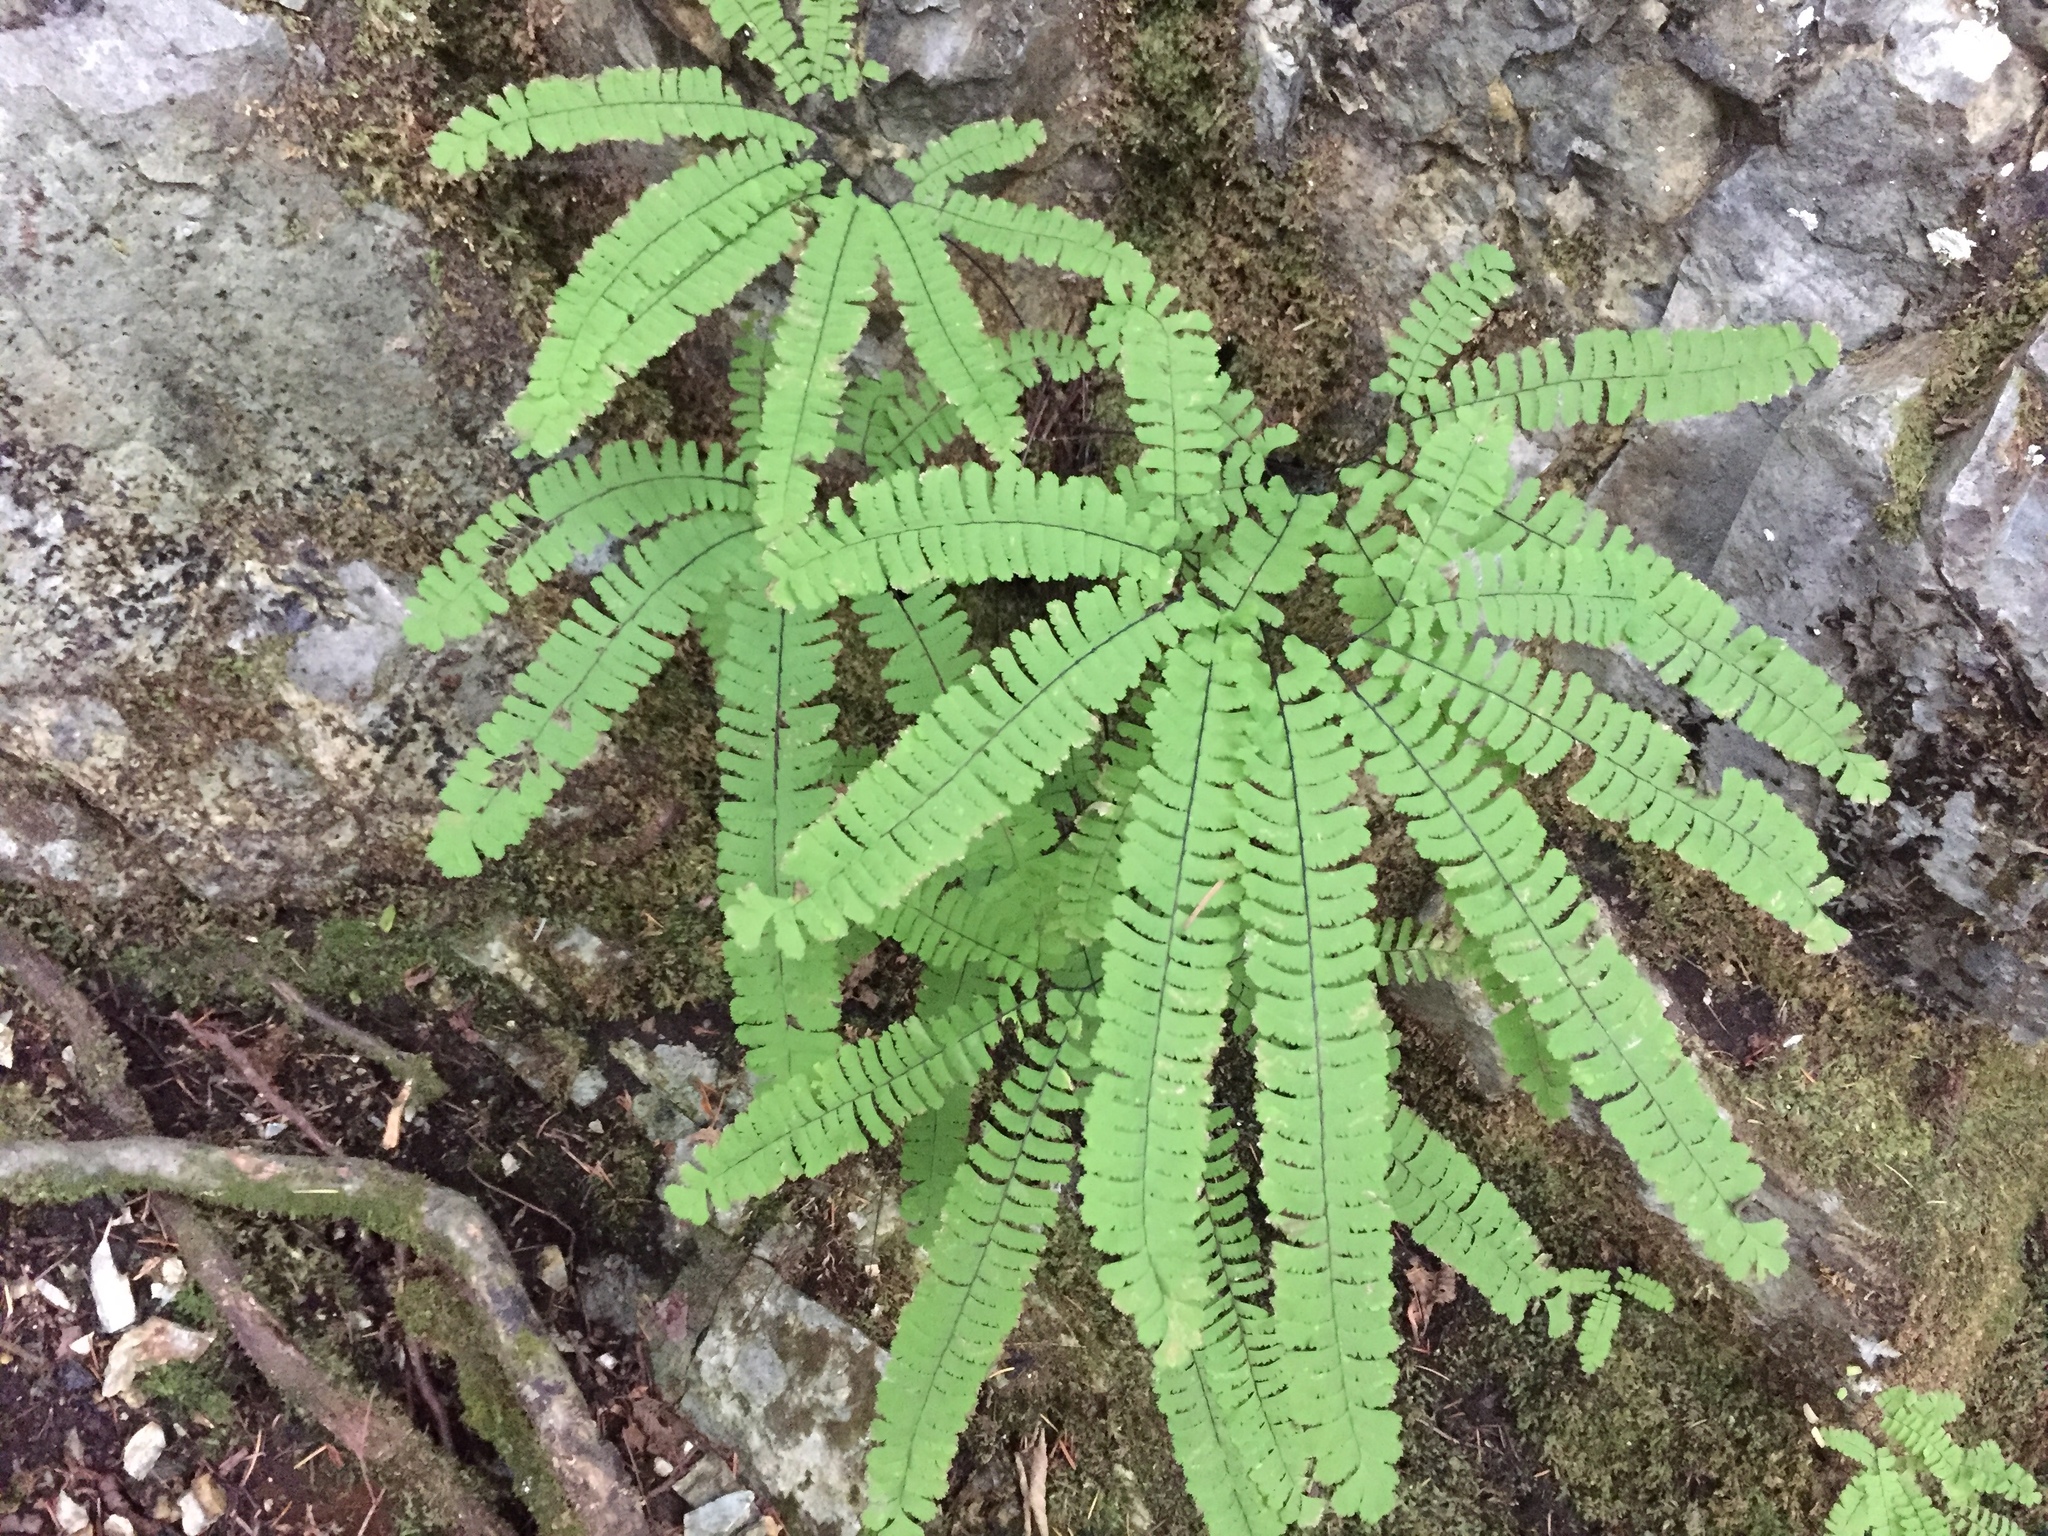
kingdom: Plantae
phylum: Tracheophyta
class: Polypodiopsida
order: Polypodiales
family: Pteridaceae
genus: Adiantum
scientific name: Adiantum aleuticum
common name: Aleutian maidenhair fern
